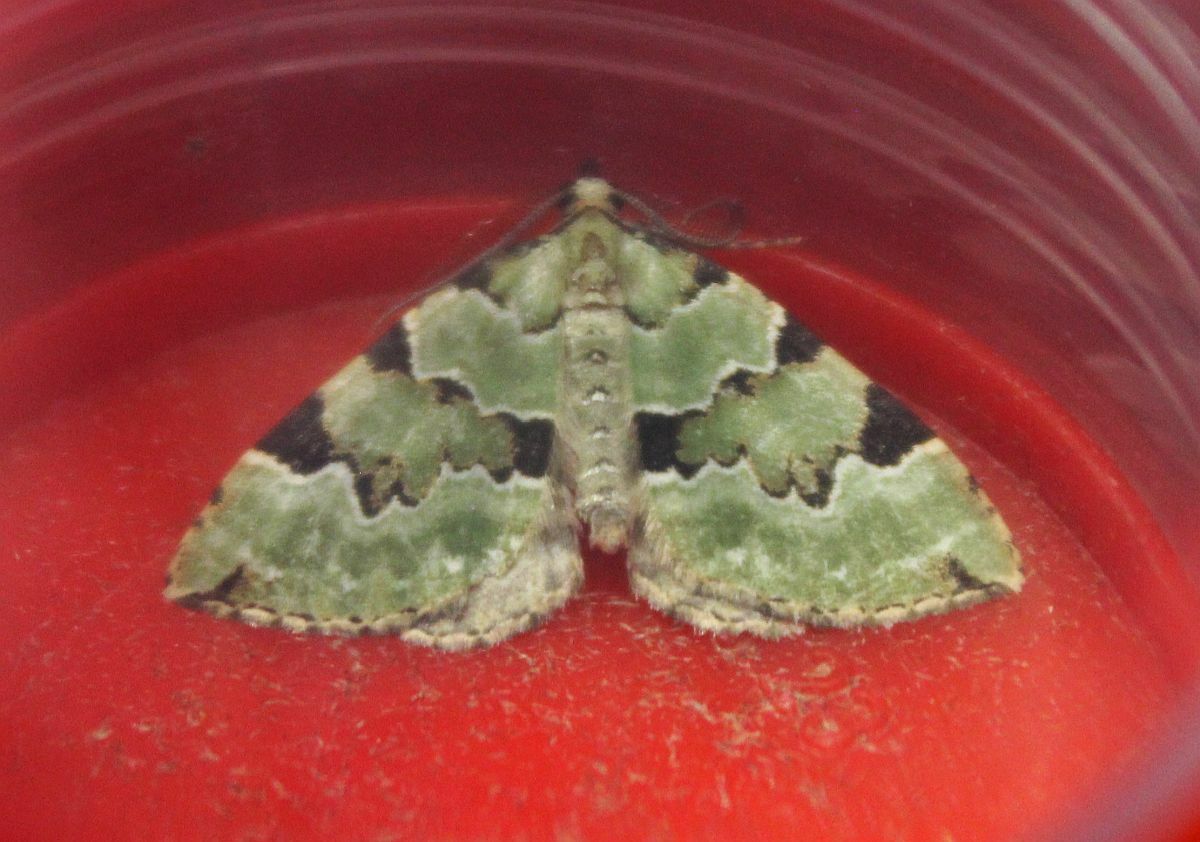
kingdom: Animalia
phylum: Arthropoda
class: Insecta
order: Lepidoptera
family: Geometridae
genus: Colostygia
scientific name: Colostygia pectinataria
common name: Green carpet
